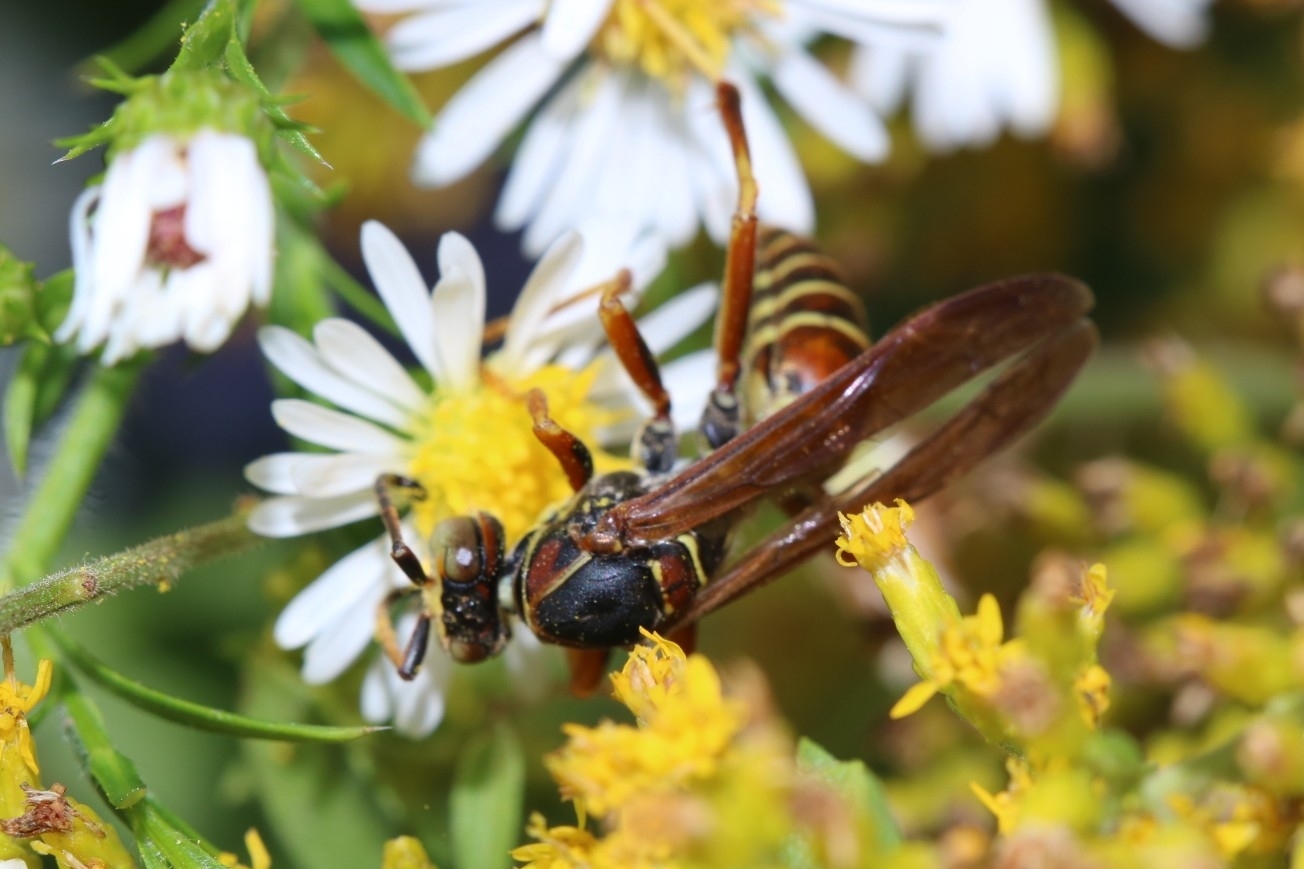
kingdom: Animalia
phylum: Arthropoda
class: Insecta
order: Hymenoptera
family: Eumenidae
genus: Polistes
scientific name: Polistes fuscatus
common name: Dark paper wasp
